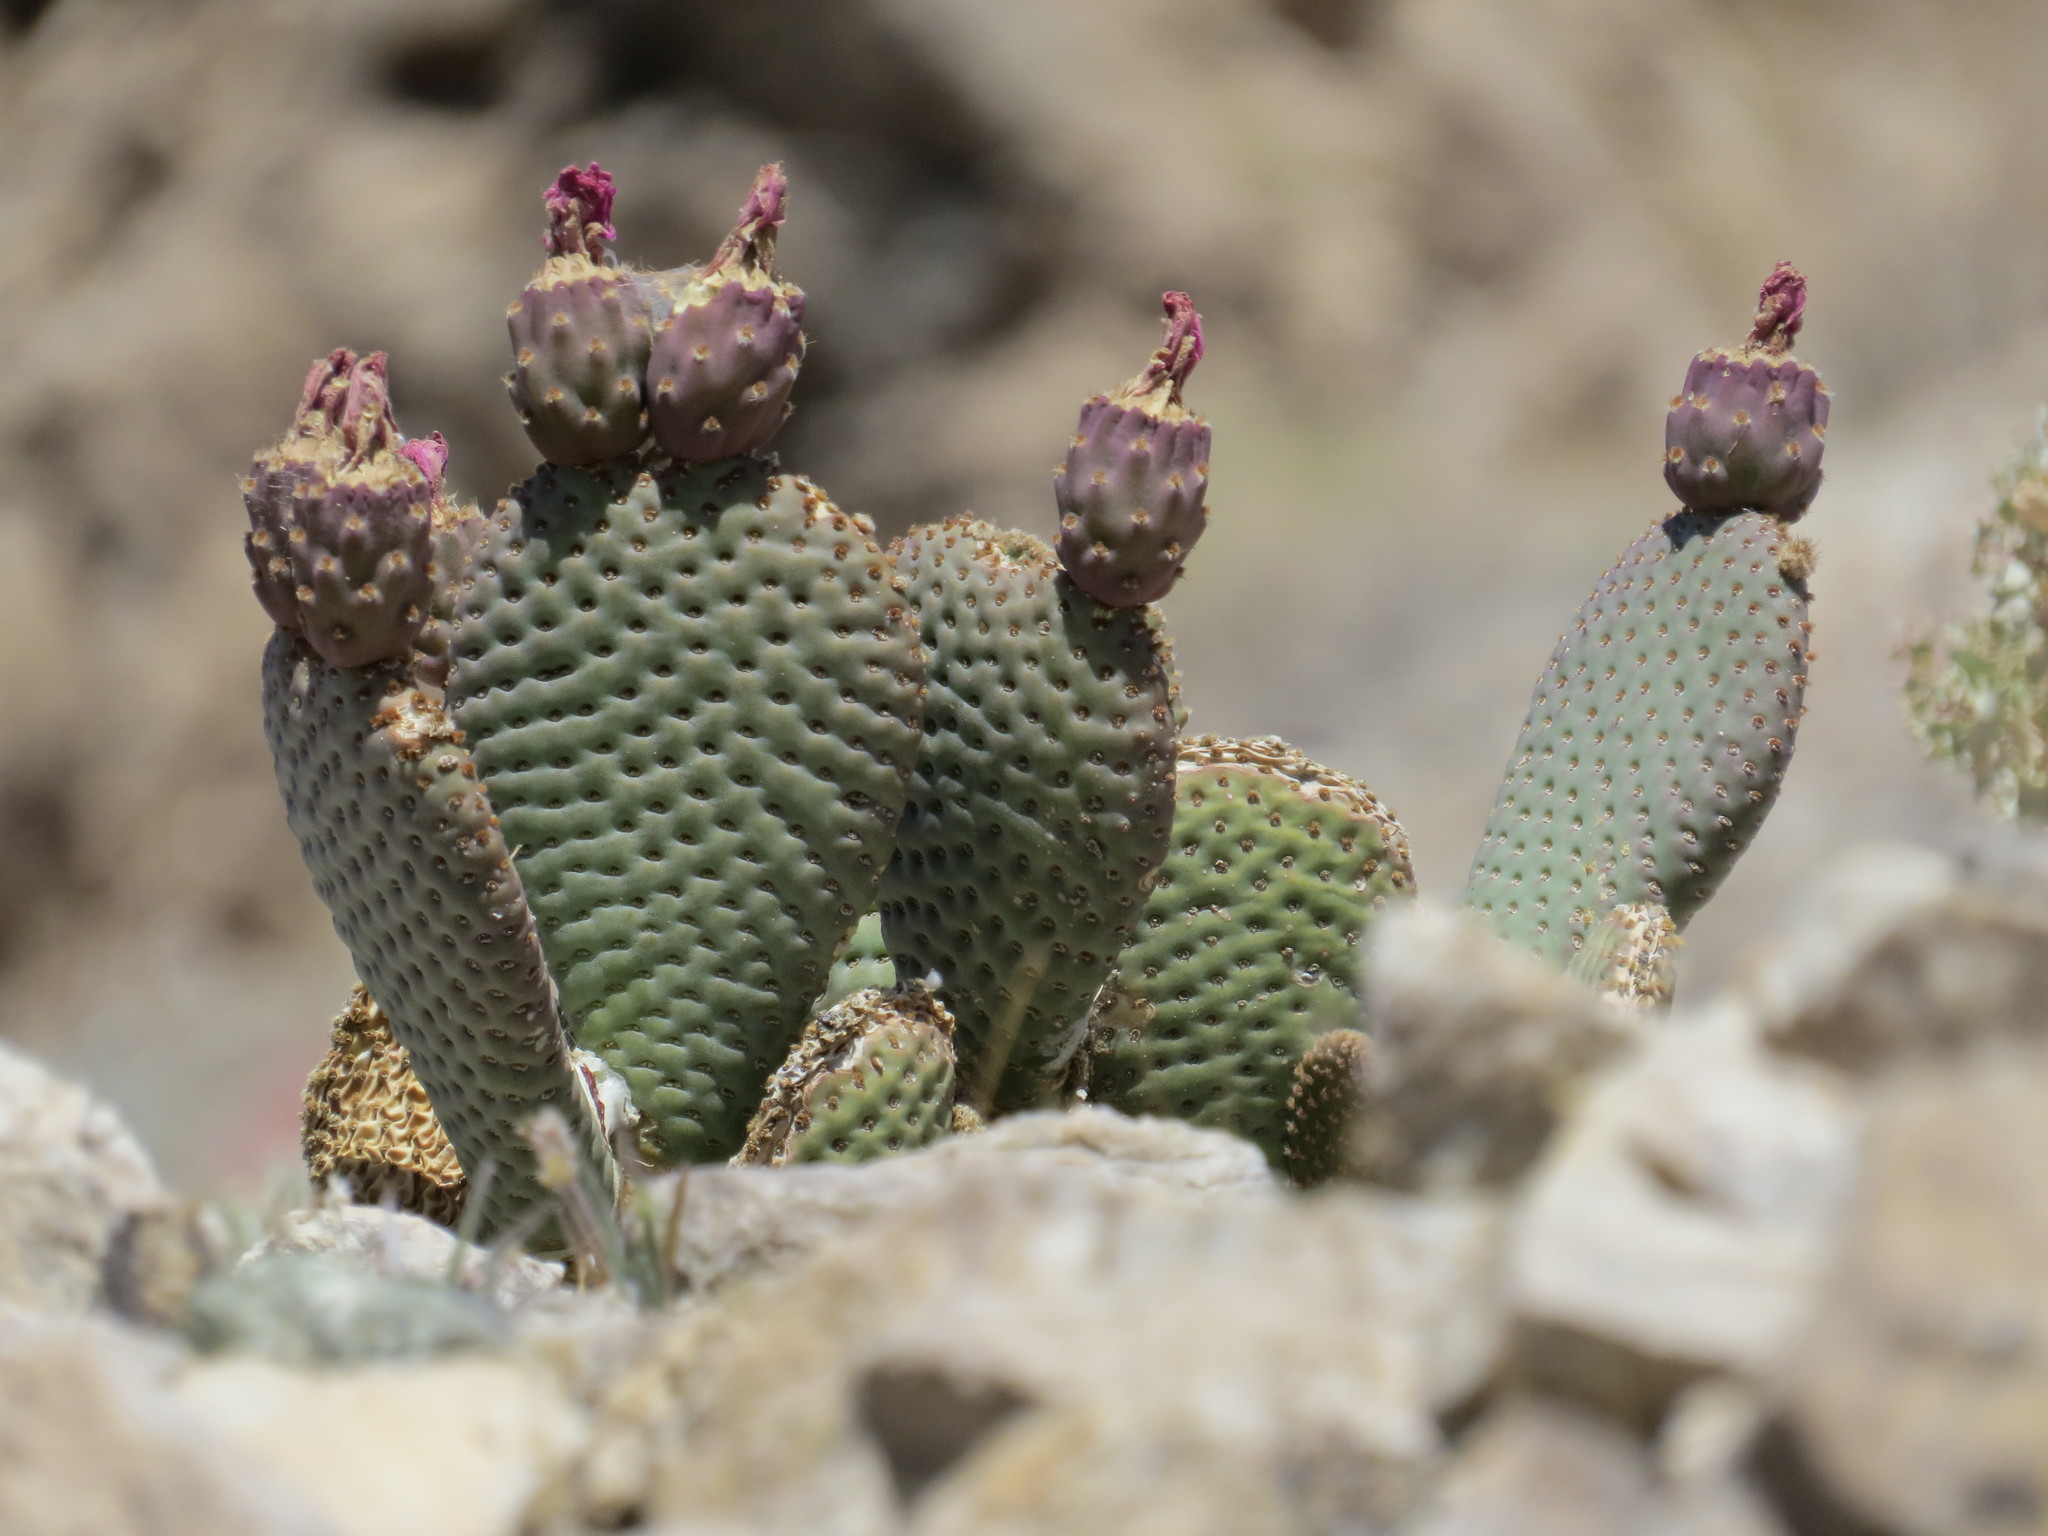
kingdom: Plantae
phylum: Tracheophyta
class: Magnoliopsida
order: Caryophyllales
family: Cactaceae
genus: Opuntia
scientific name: Opuntia basilaris
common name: Beavertail prickly-pear
